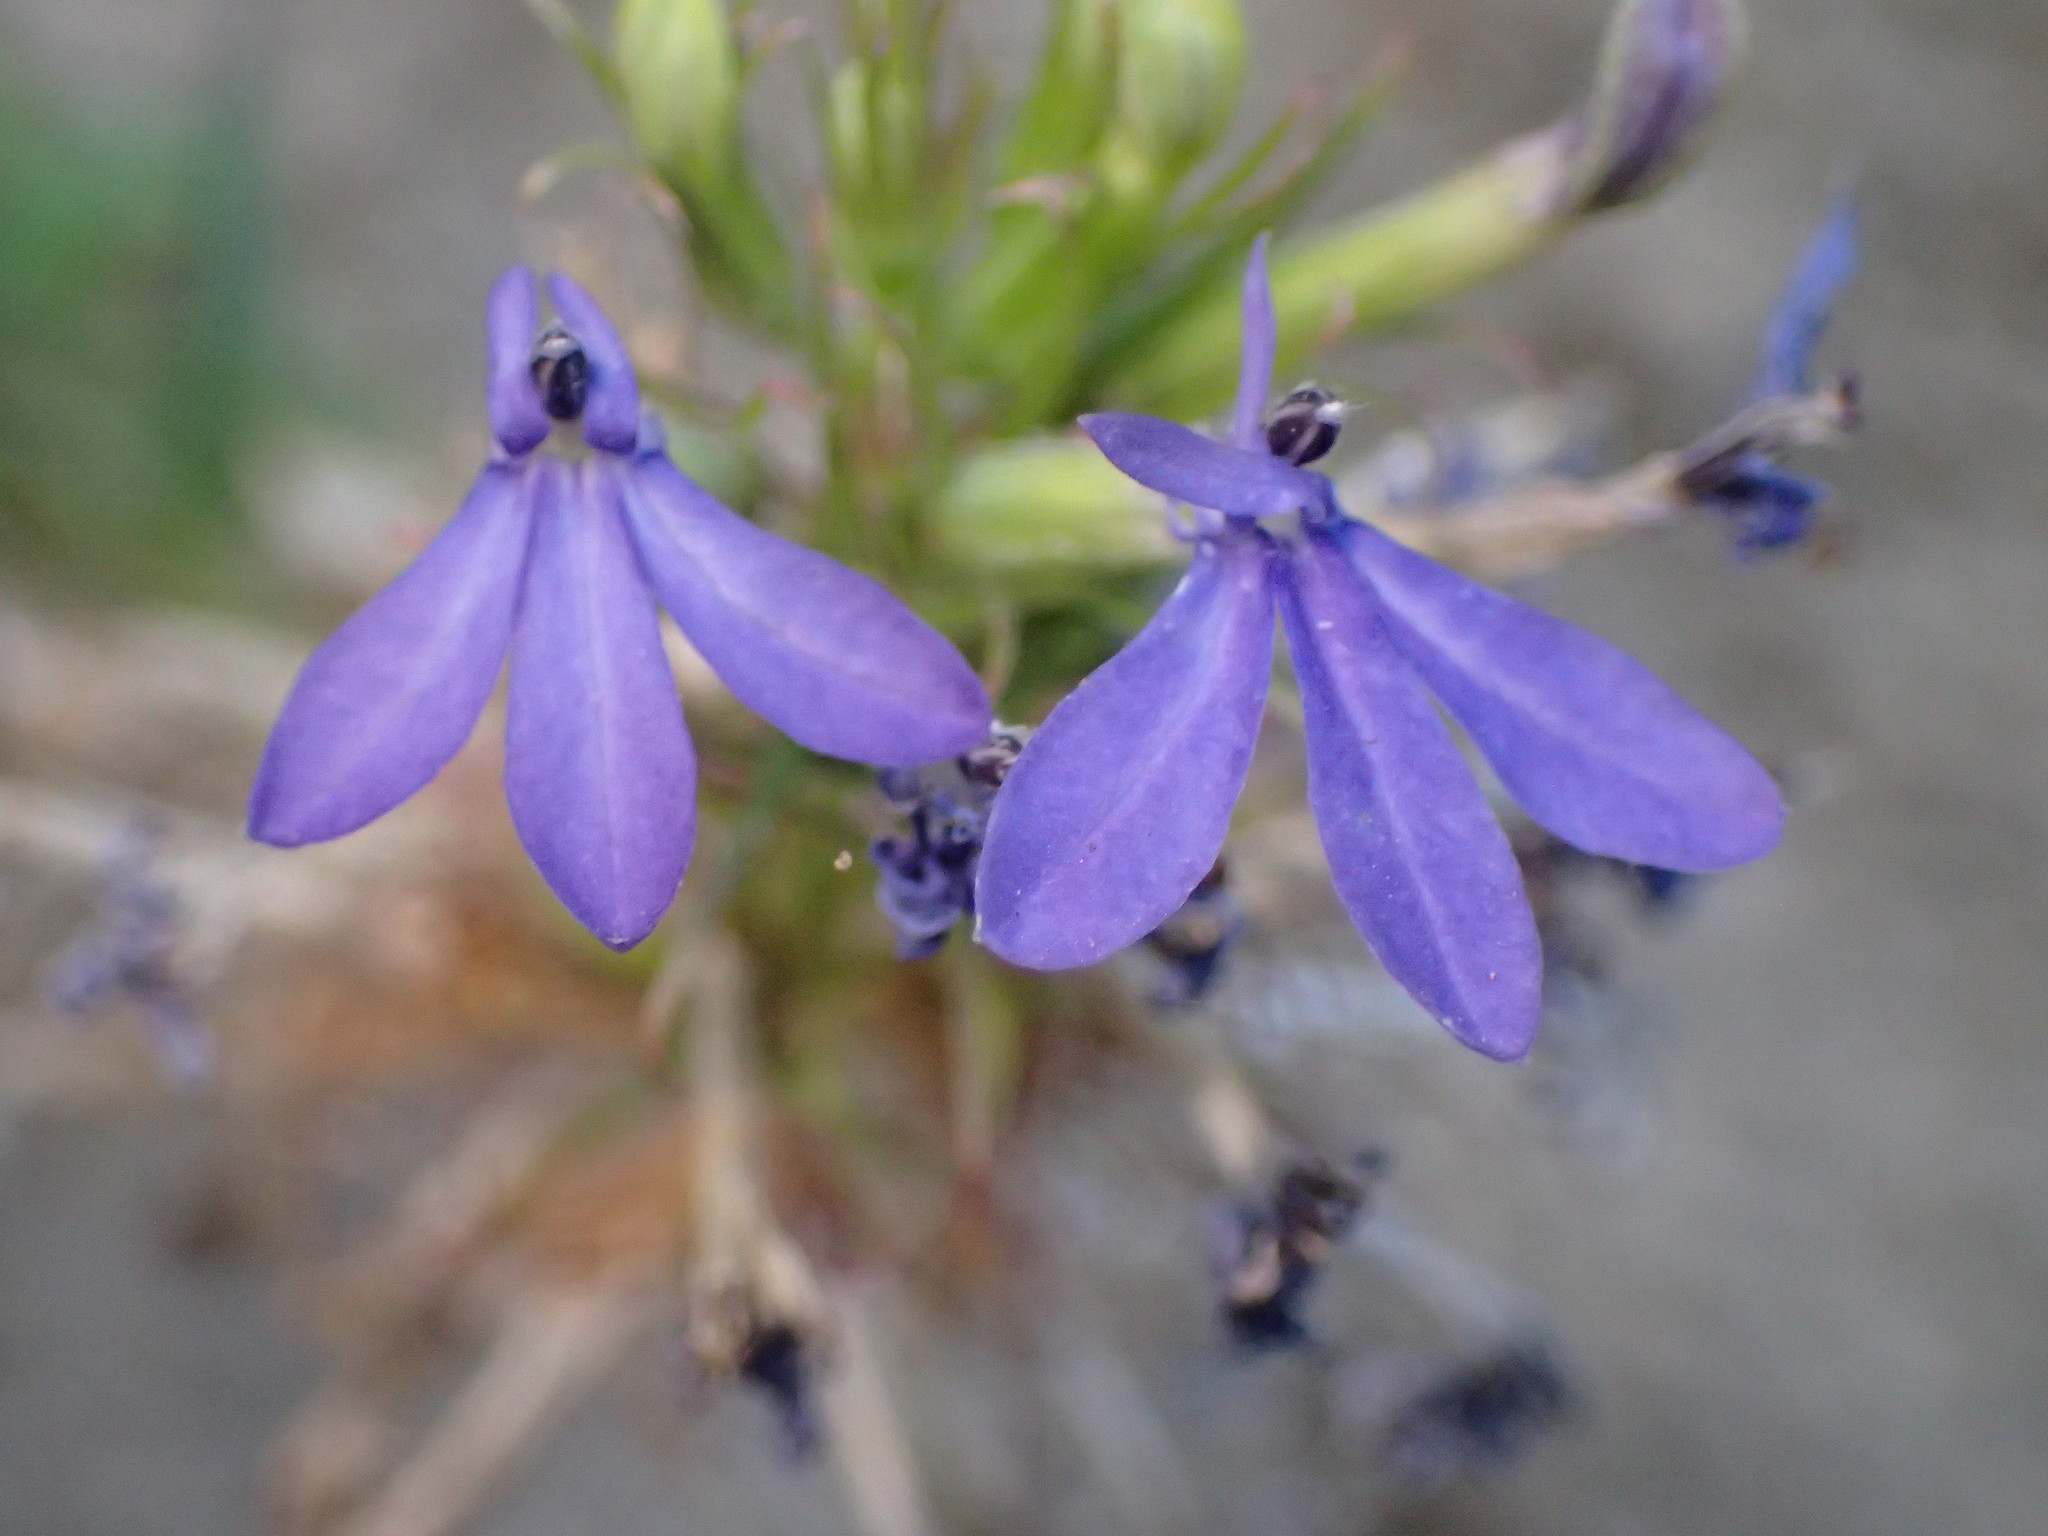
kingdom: Plantae
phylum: Tracheophyta
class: Magnoliopsida
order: Asterales
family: Campanulaceae
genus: Palmerella
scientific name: Palmerella debilis
